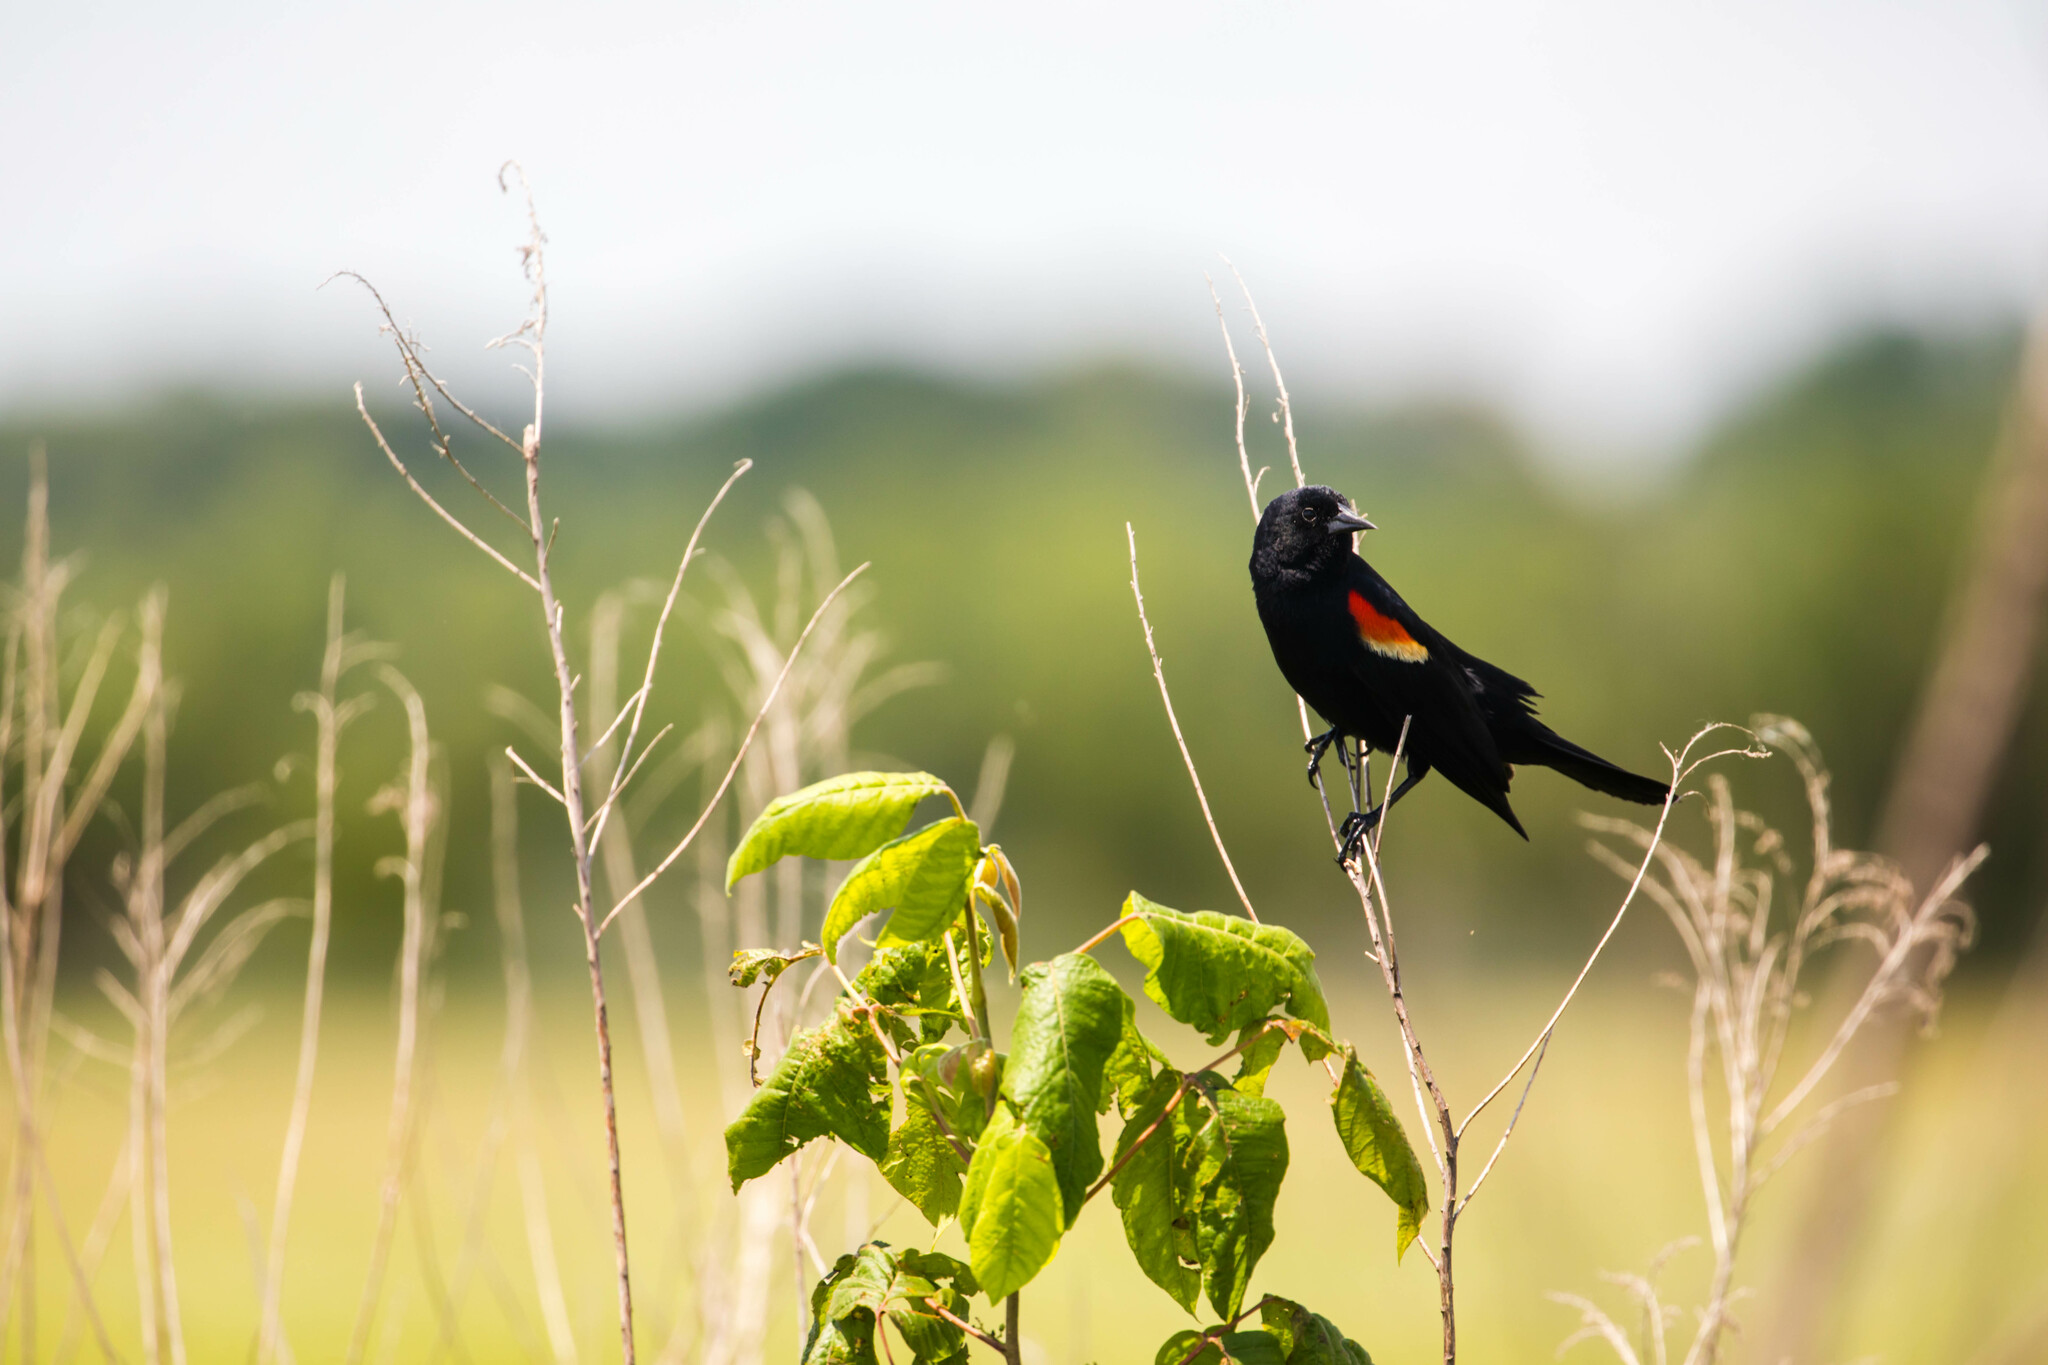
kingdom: Animalia
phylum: Chordata
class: Aves
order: Passeriformes
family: Icteridae
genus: Agelaius
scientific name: Agelaius phoeniceus
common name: Red-winged blackbird
